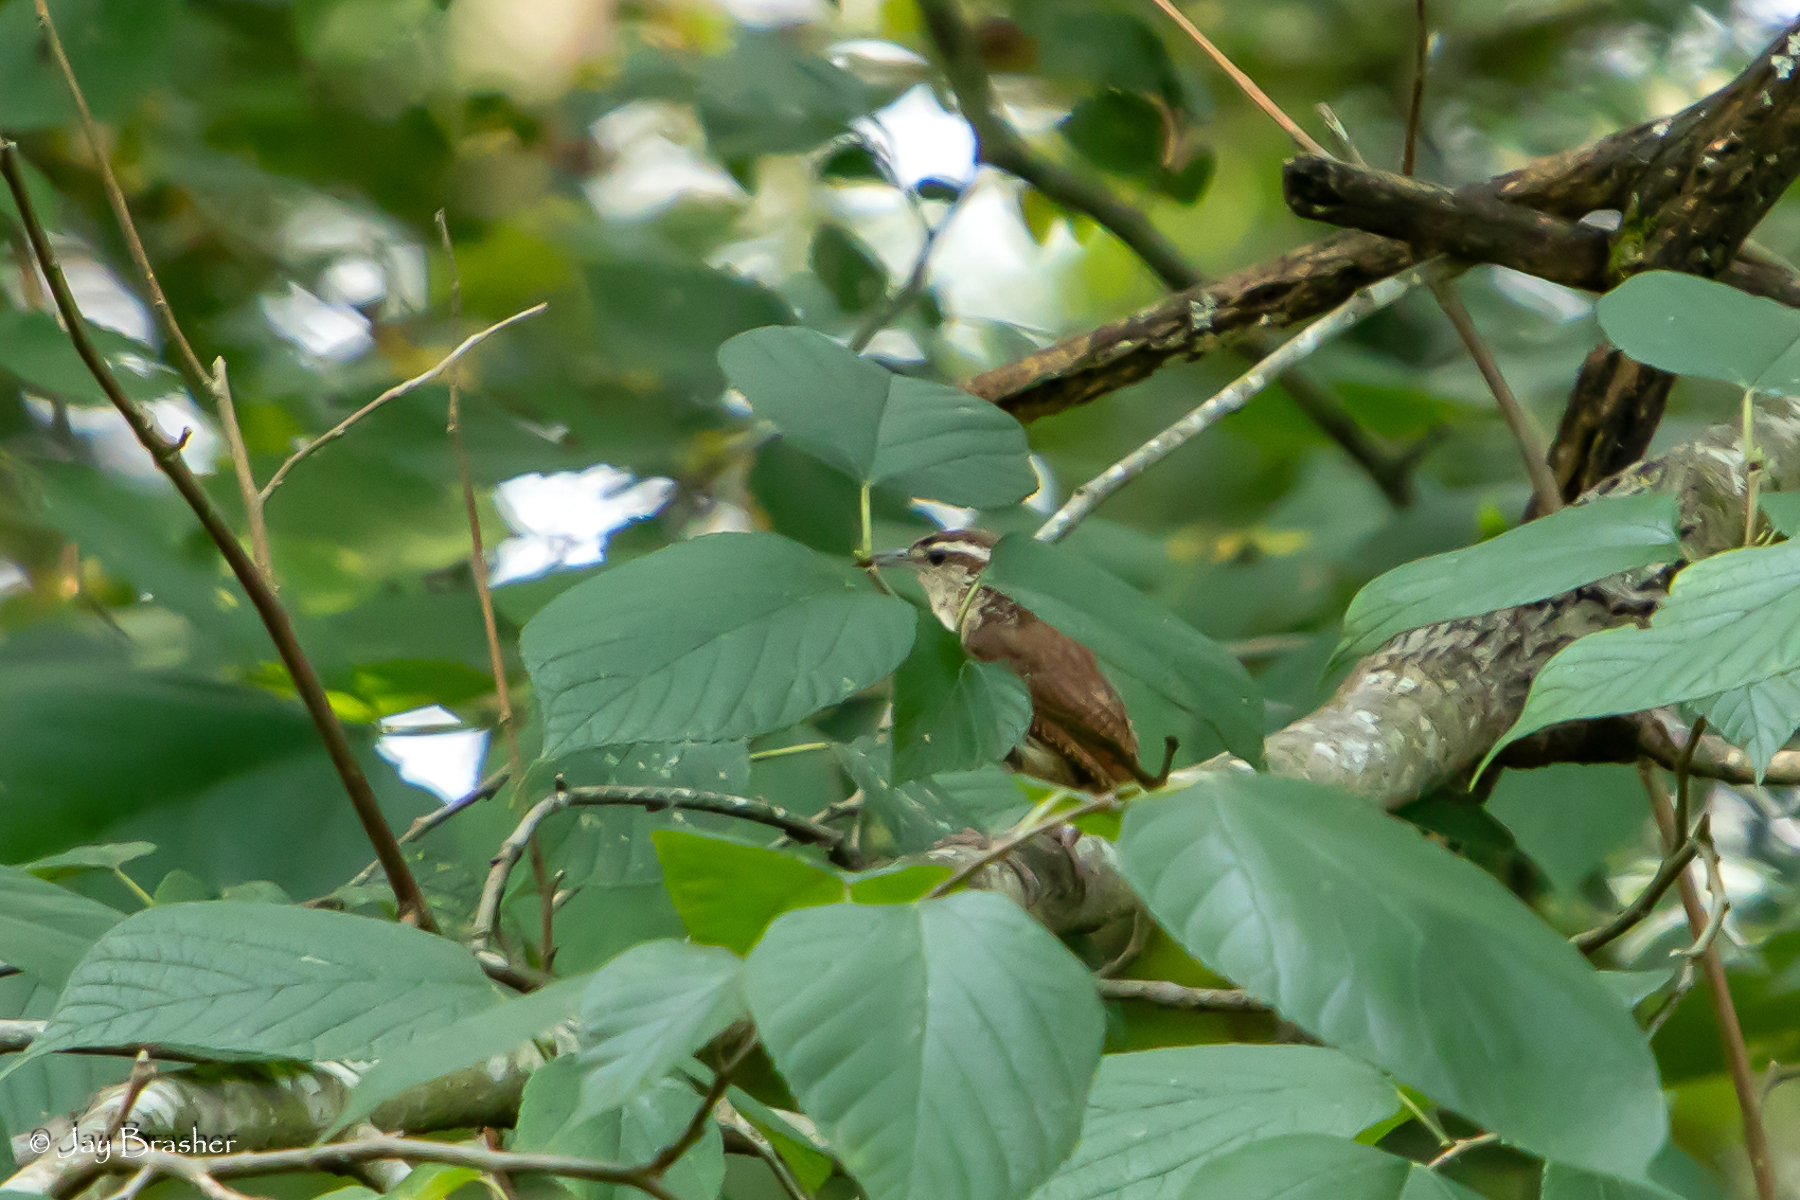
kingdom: Animalia
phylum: Chordata
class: Aves
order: Passeriformes
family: Troglodytidae
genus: Thryothorus
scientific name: Thryothorus ludovicianus
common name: Carolina wren
